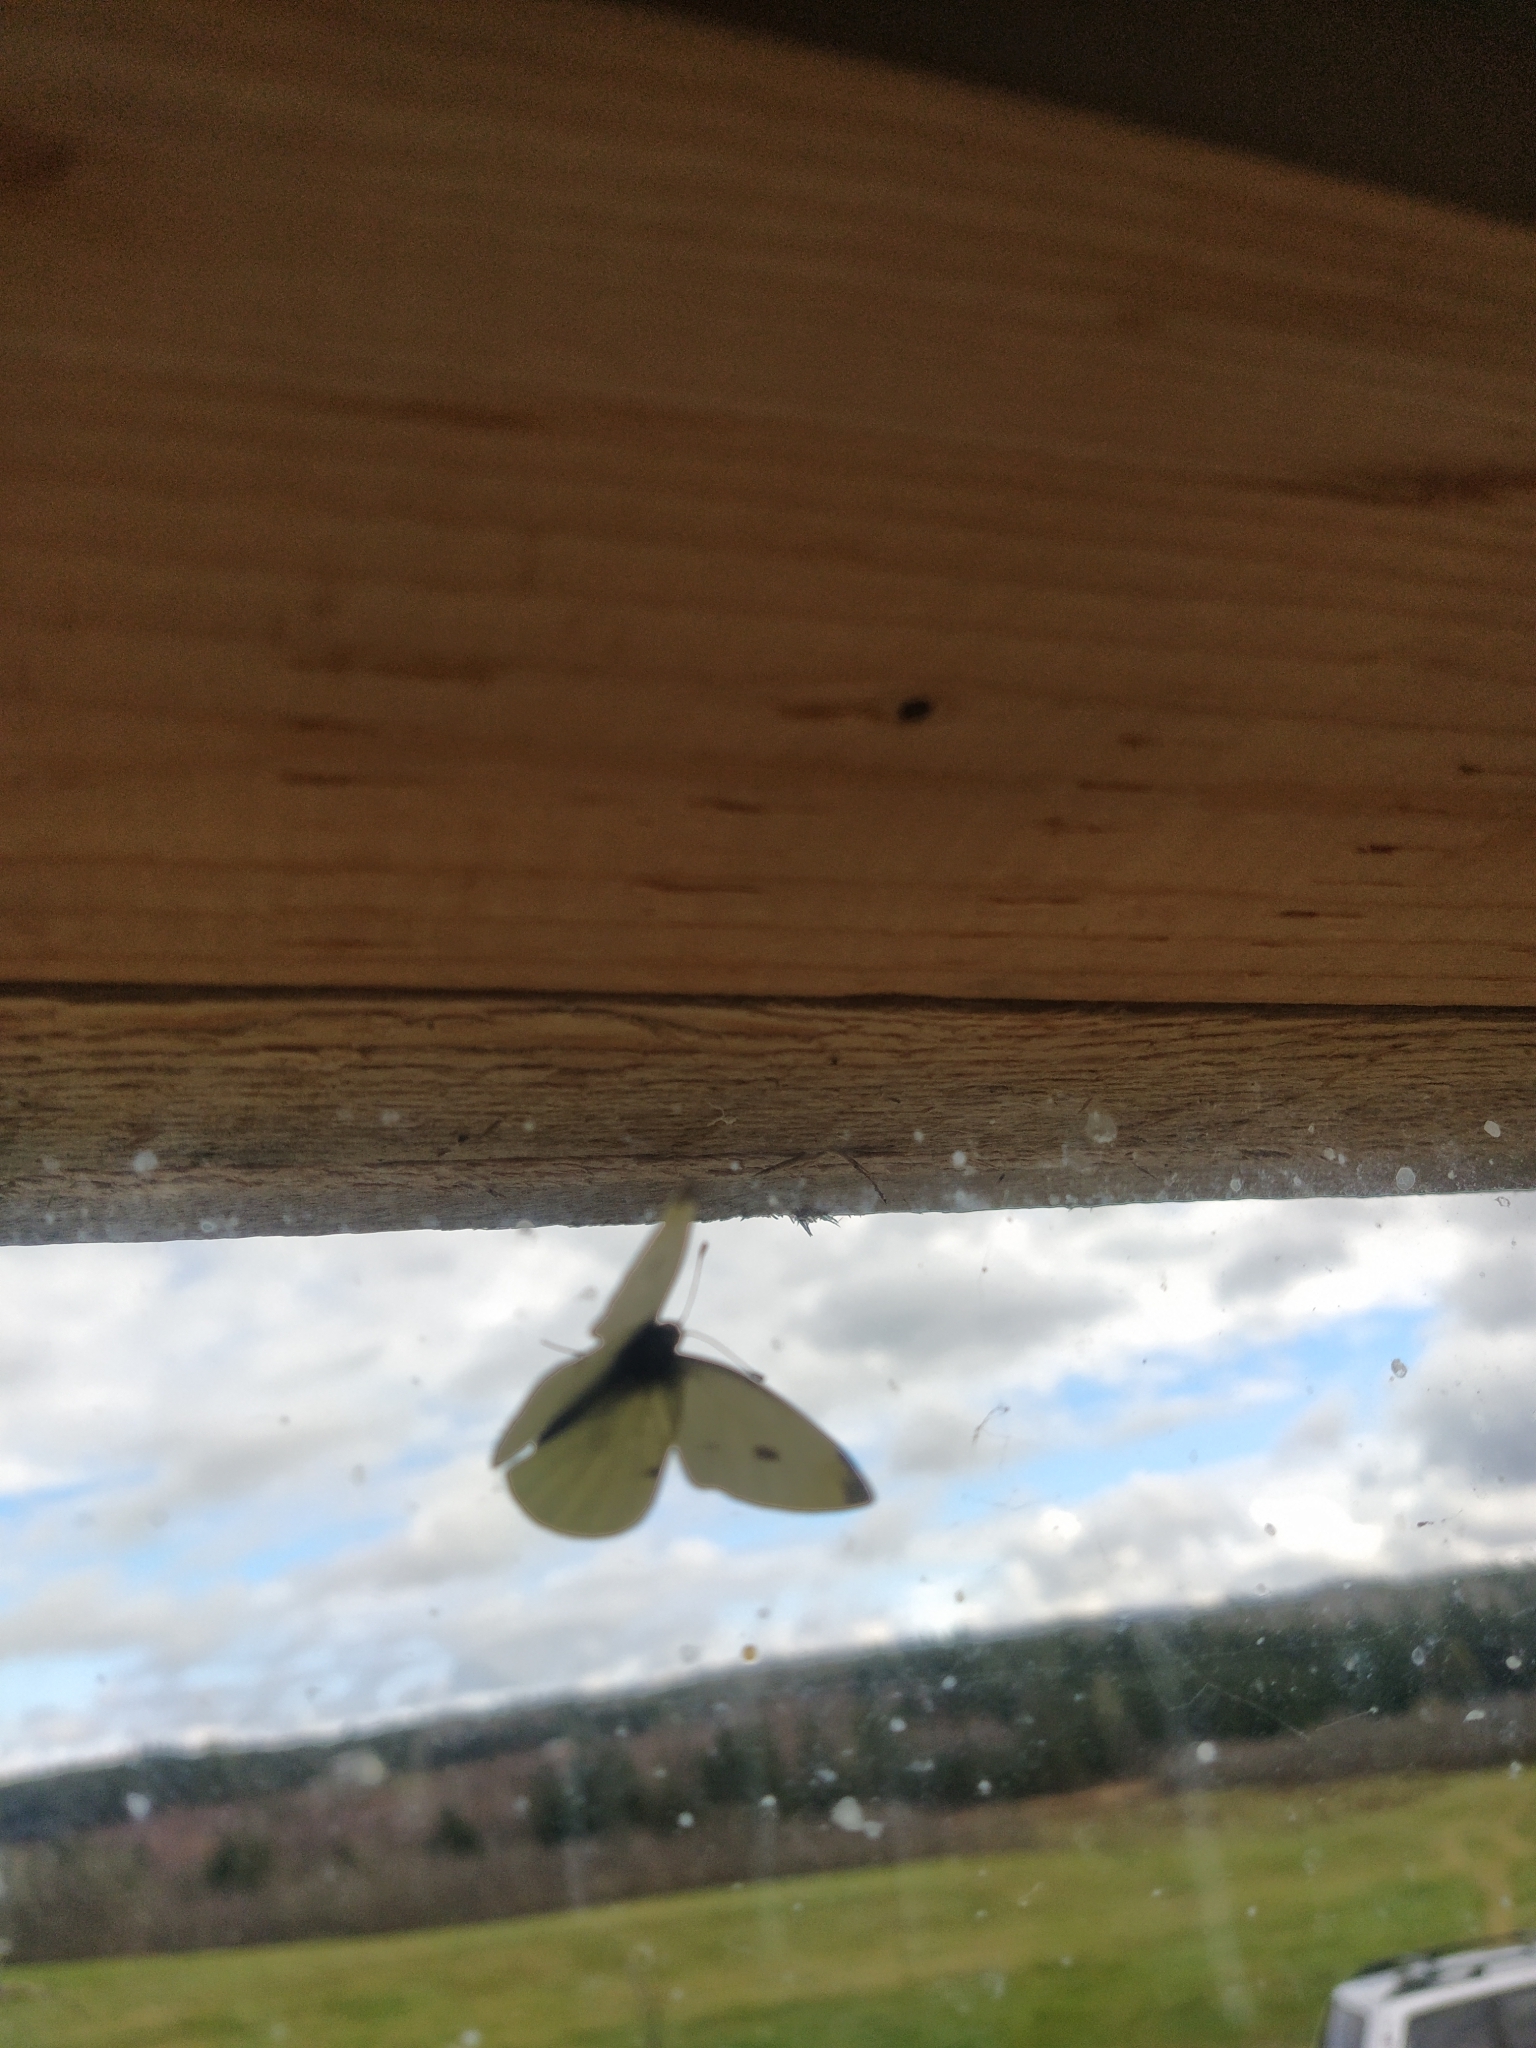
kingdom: Animalia
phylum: Arthropoda
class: Insecta
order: Lepidoptera
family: Pieridae
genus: Pieris
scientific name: Pieris rapae
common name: Small white
